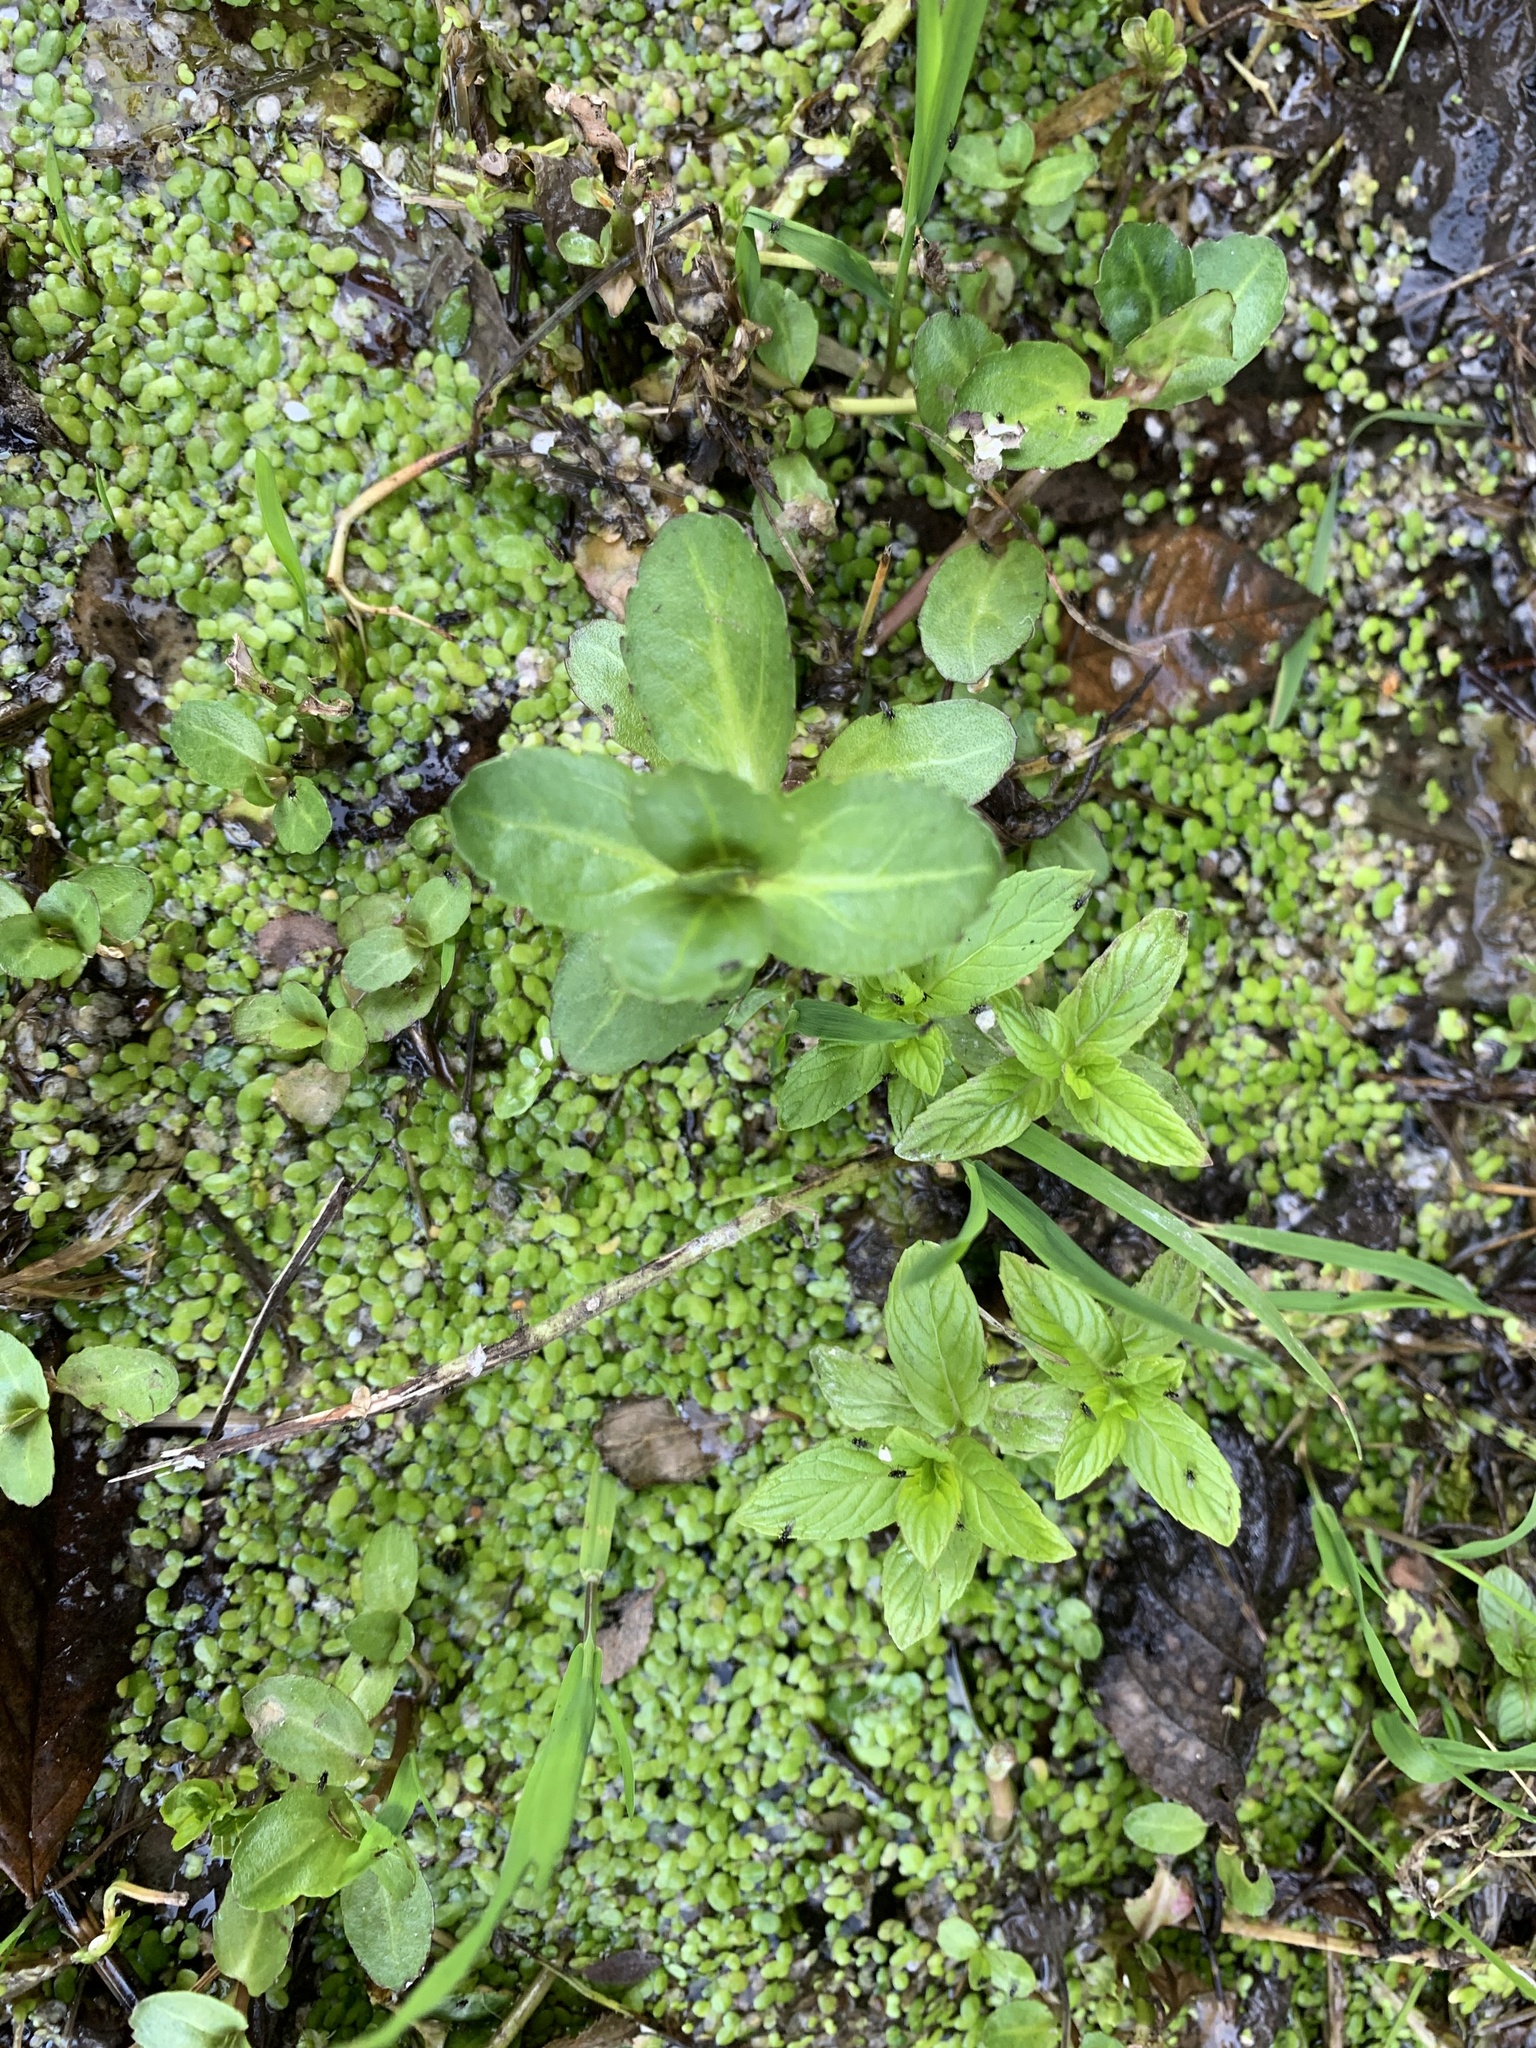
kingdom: Plantae
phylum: Tracheophyta
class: Magnoliopsida
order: Lamiales
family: Plantaginaceae
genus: Veronica
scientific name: Veronica beccabunga
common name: Brooklime
